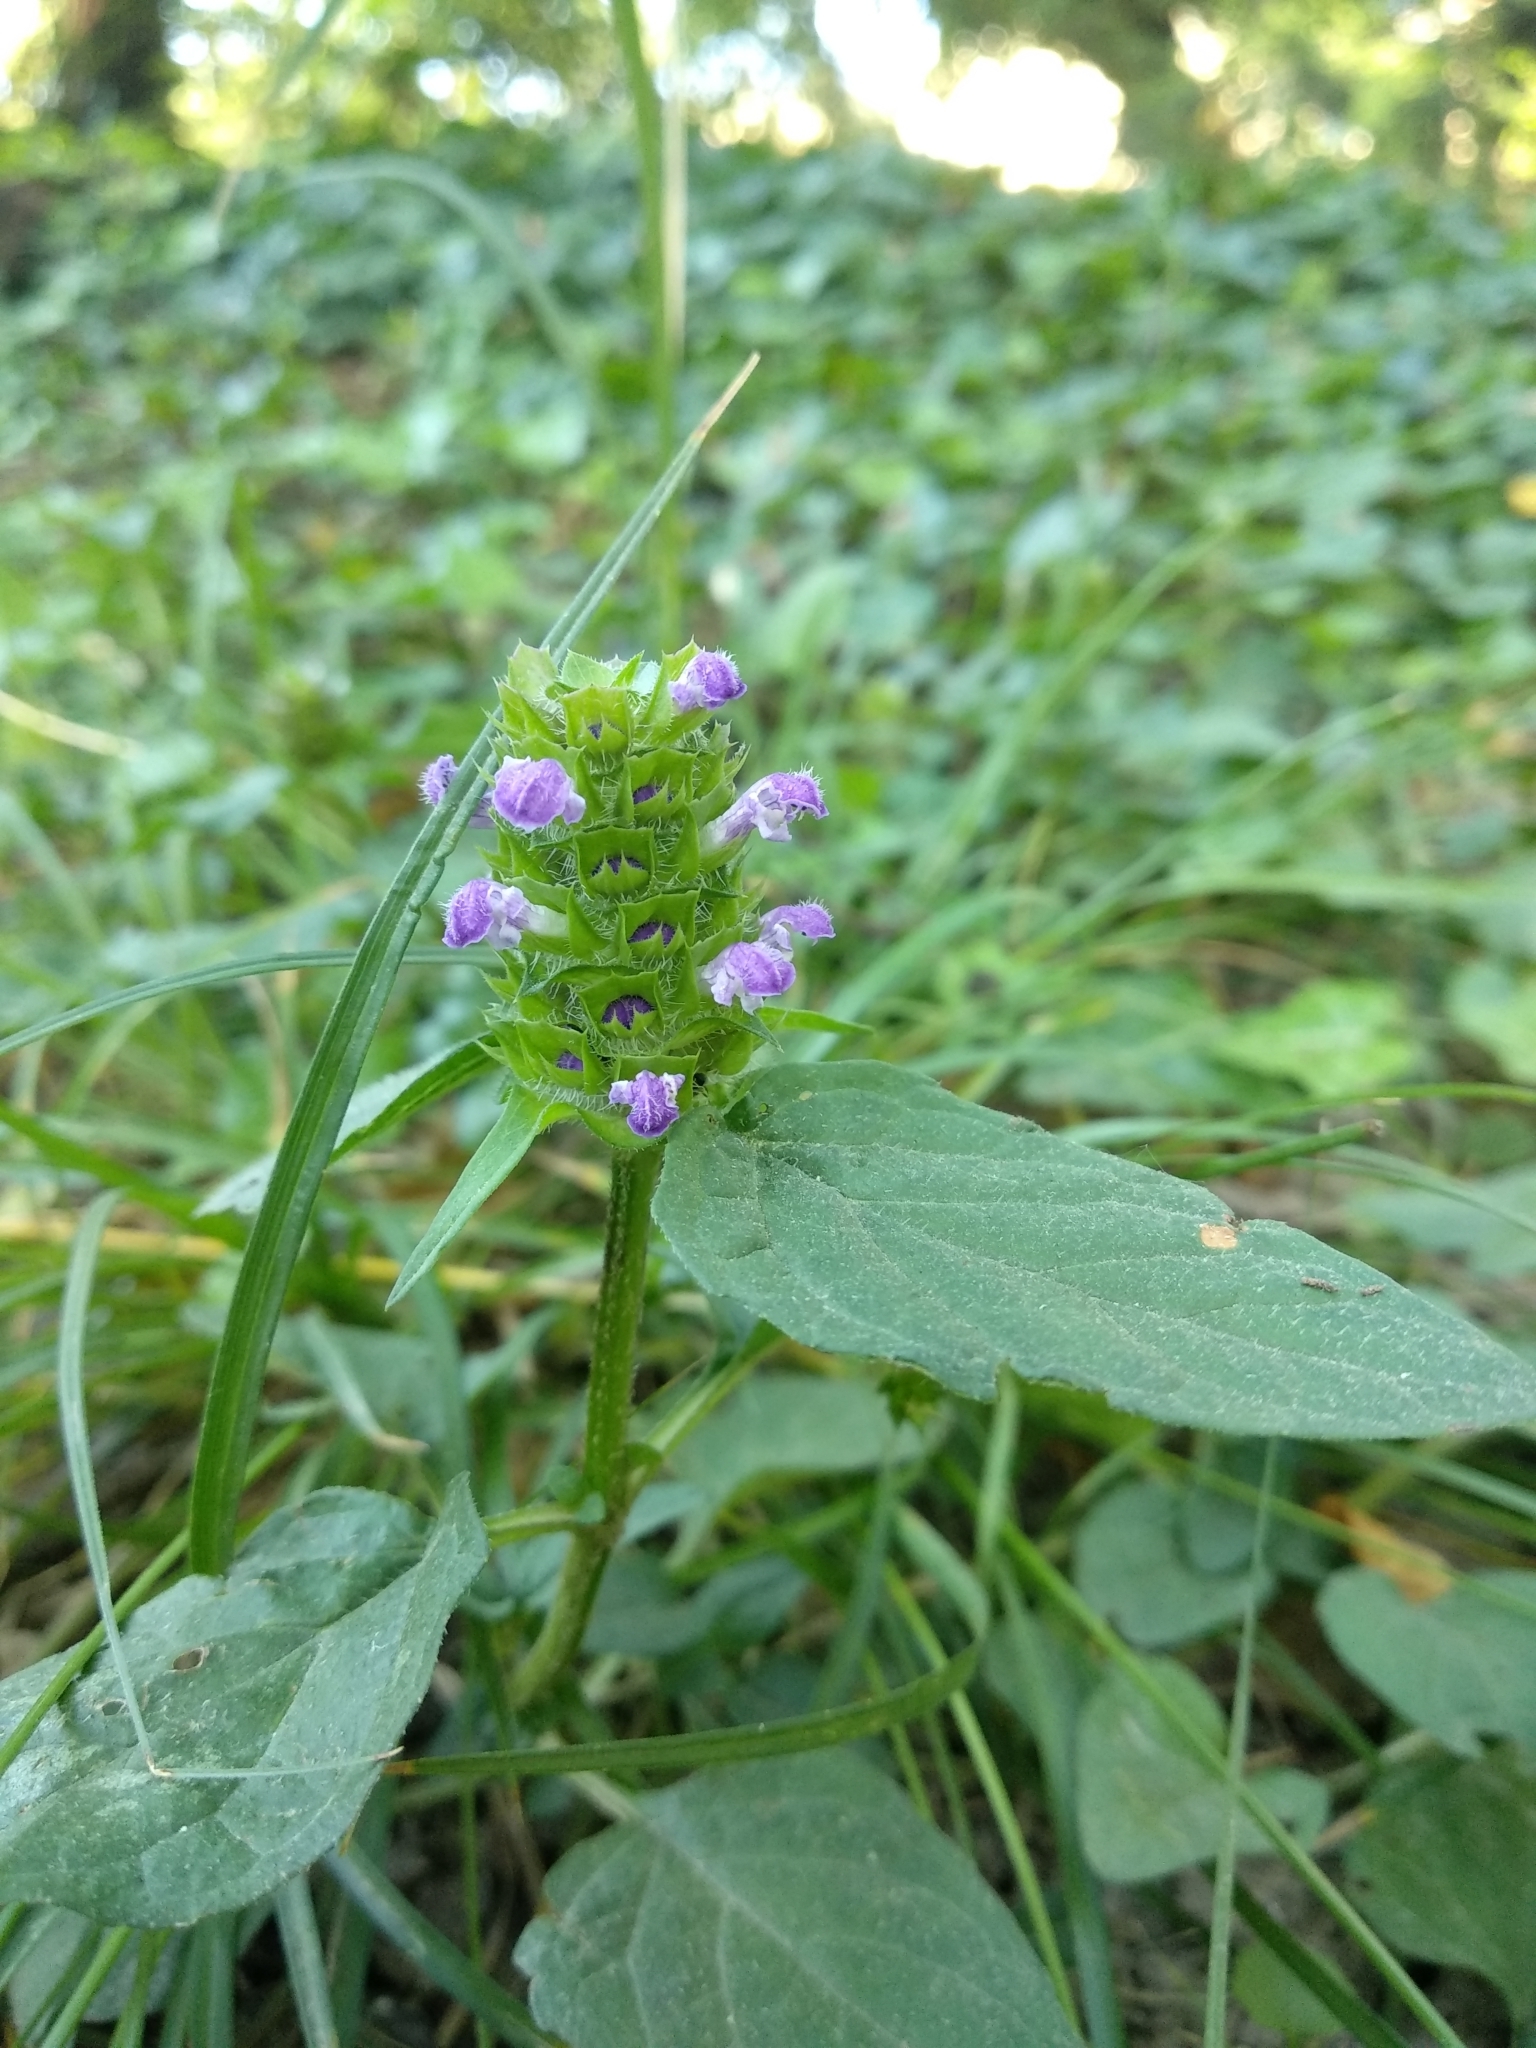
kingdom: Plantae
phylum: Tracheophyta
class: Magnoliopsida
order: Lamiales
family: Lamiaceae
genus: Prunella
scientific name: Prunella vulgaris
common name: Heal-all
